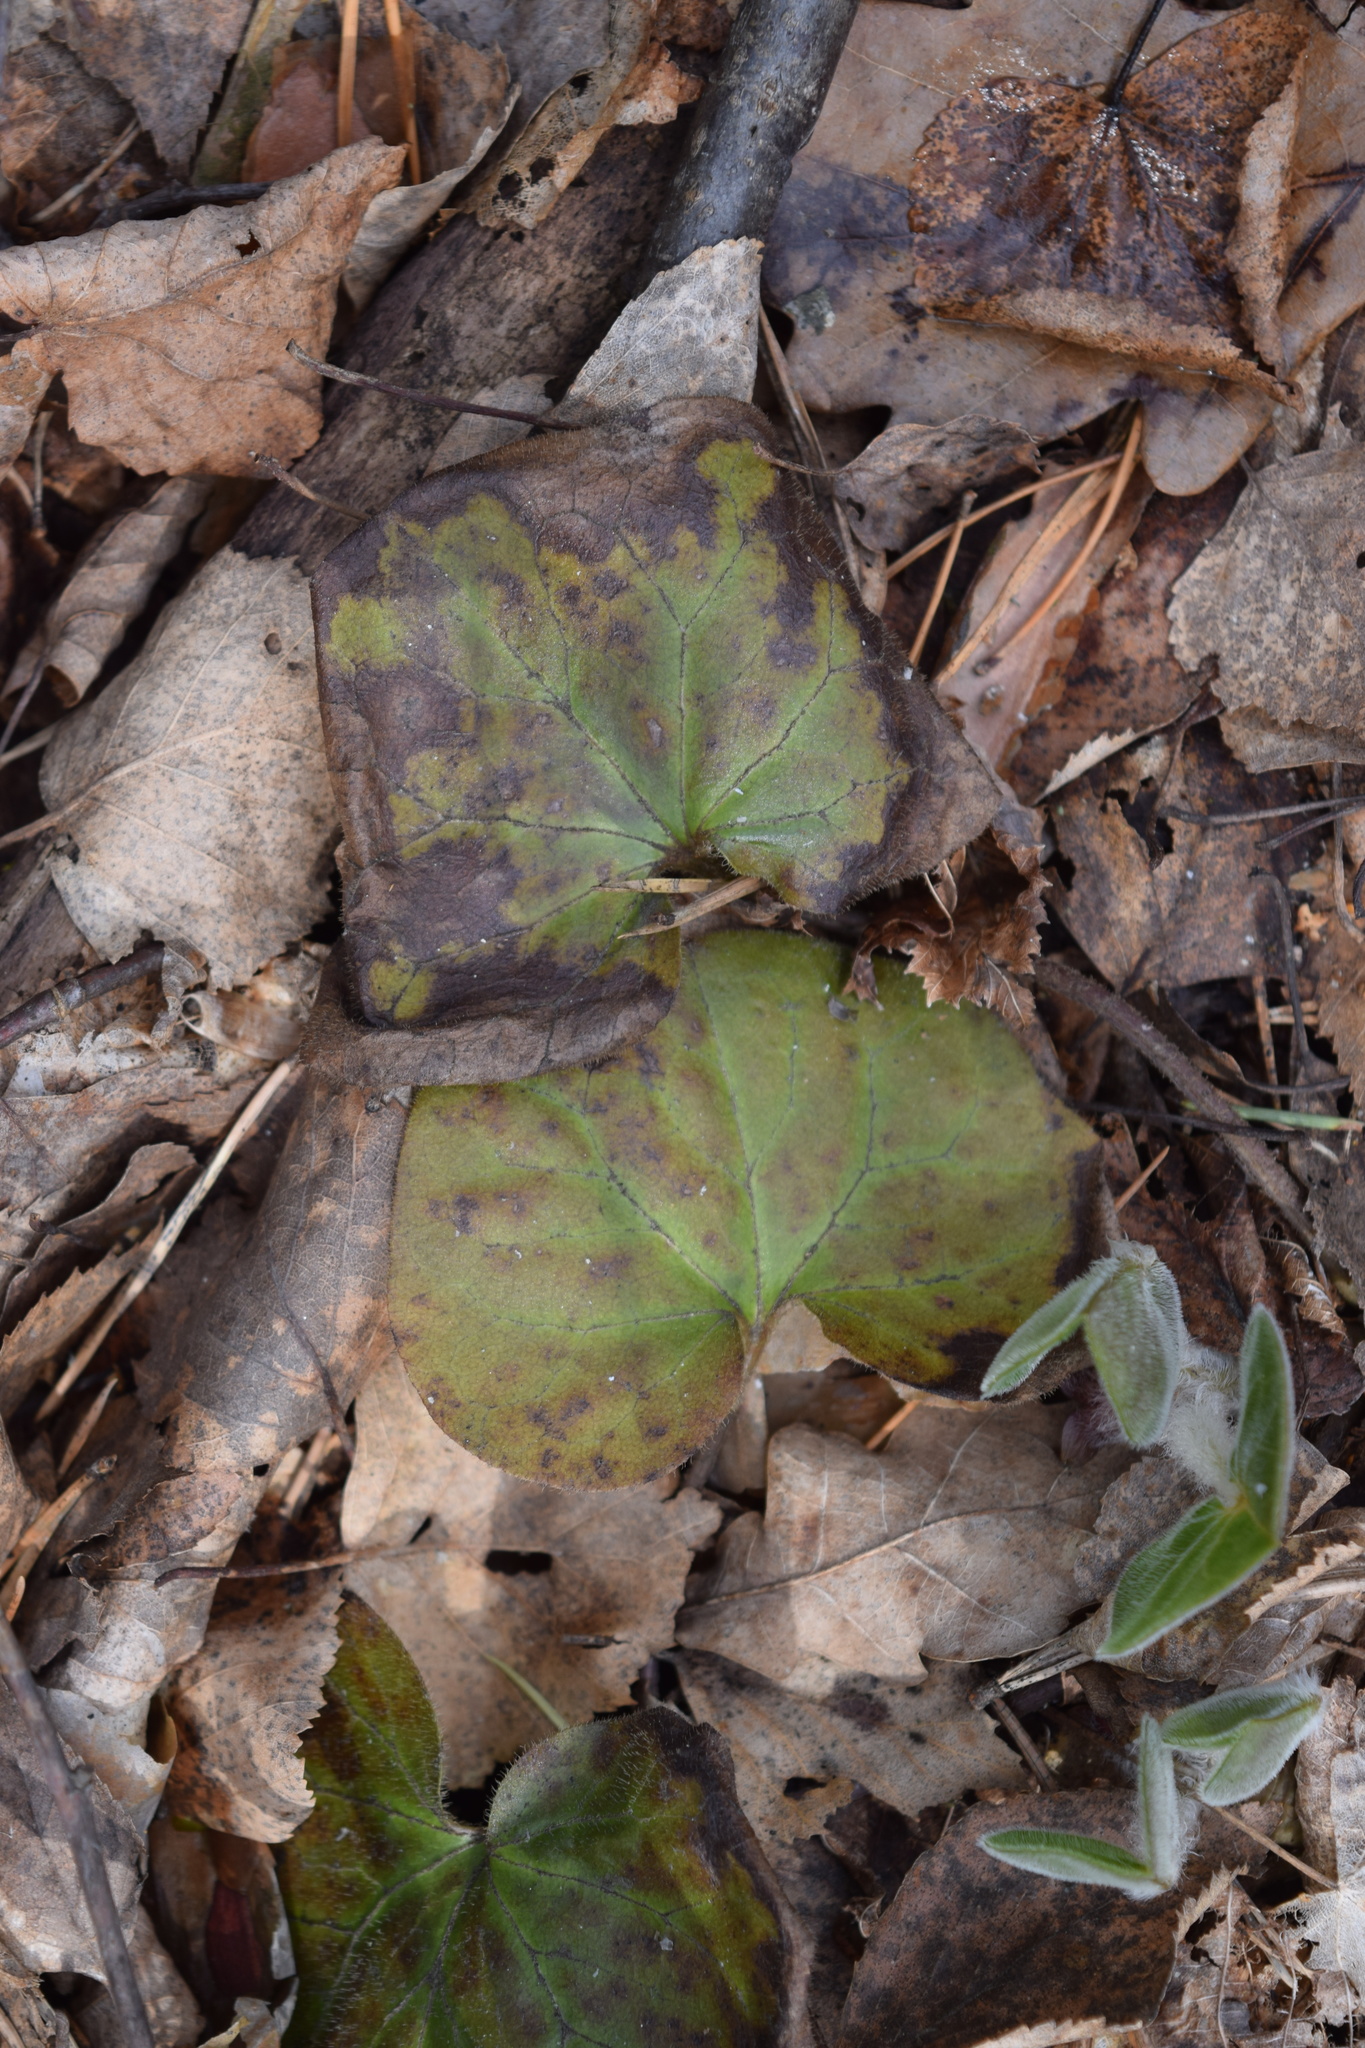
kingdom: Plantae
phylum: Tracheophyta
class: Magnoliopsida
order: Piperales
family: Aristolochiaceae
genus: Asarum
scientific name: Asarum europaeum
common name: Asarabacca
